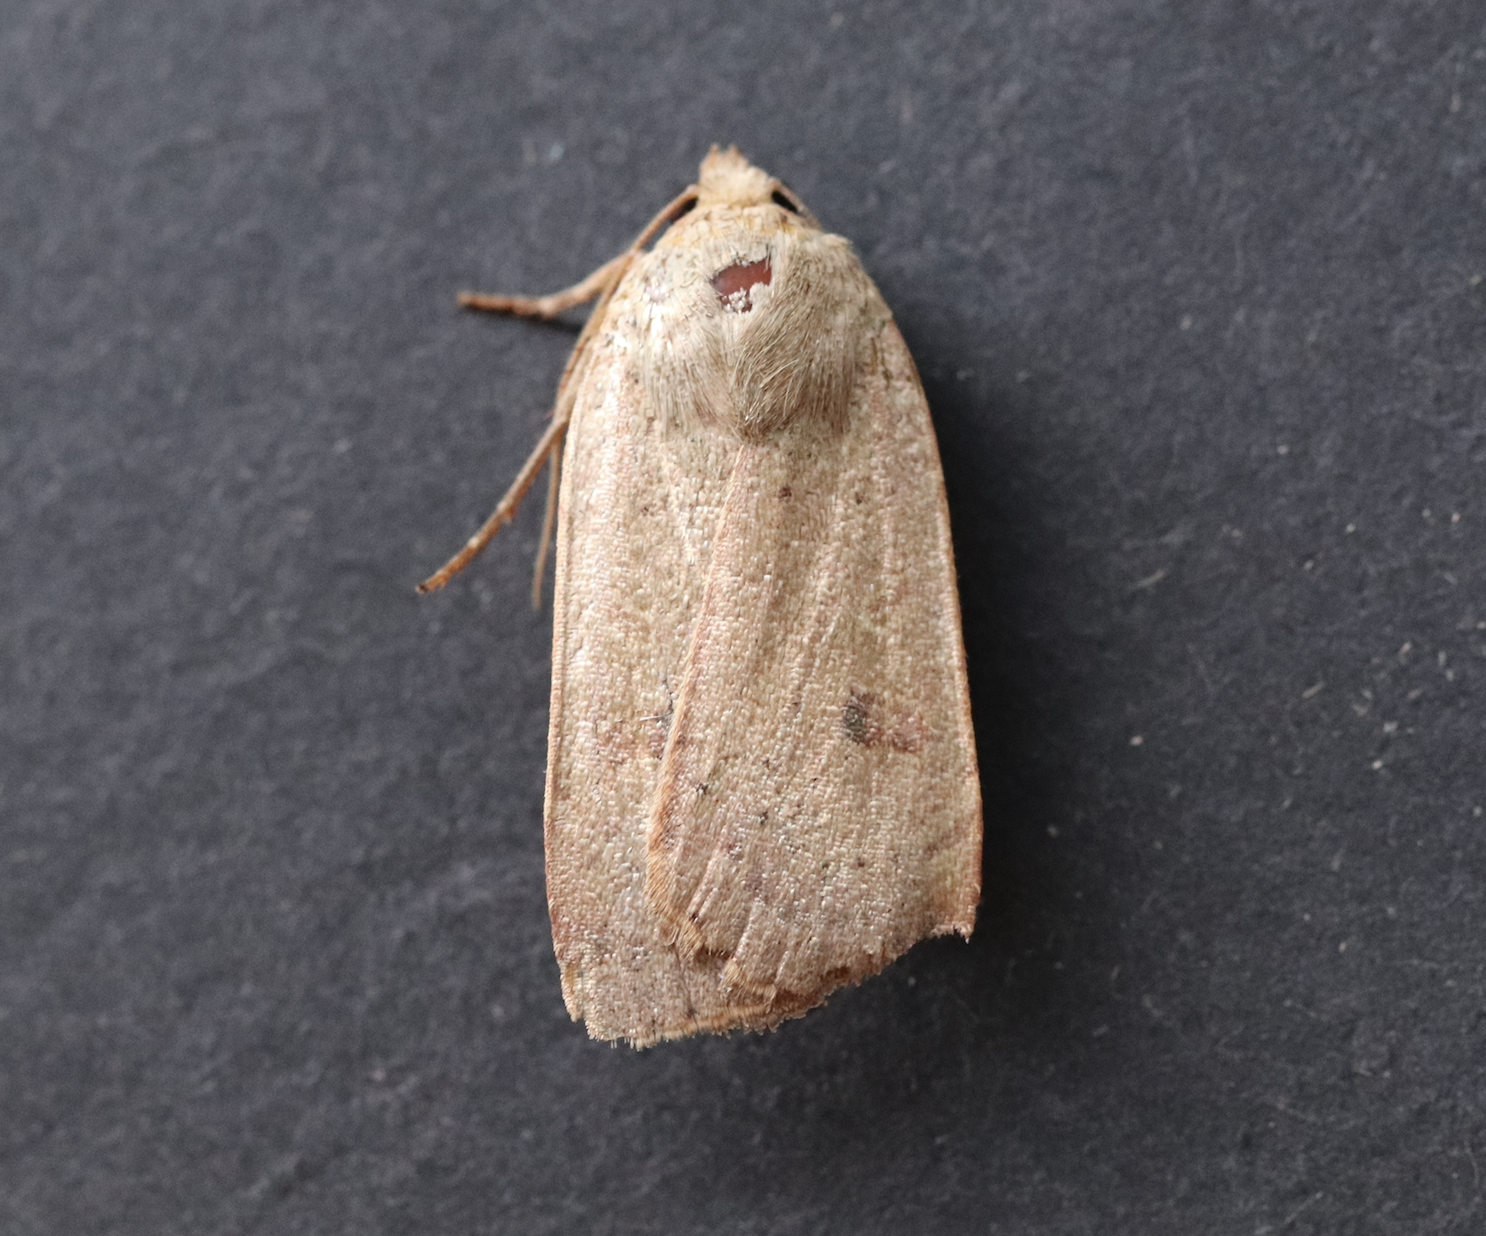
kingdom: Animalia
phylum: Arthropoda
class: Insecta
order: Lepidoptera
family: Noctuidae
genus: Noctua
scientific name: Noctua comes
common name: Lesser yellow underwing
